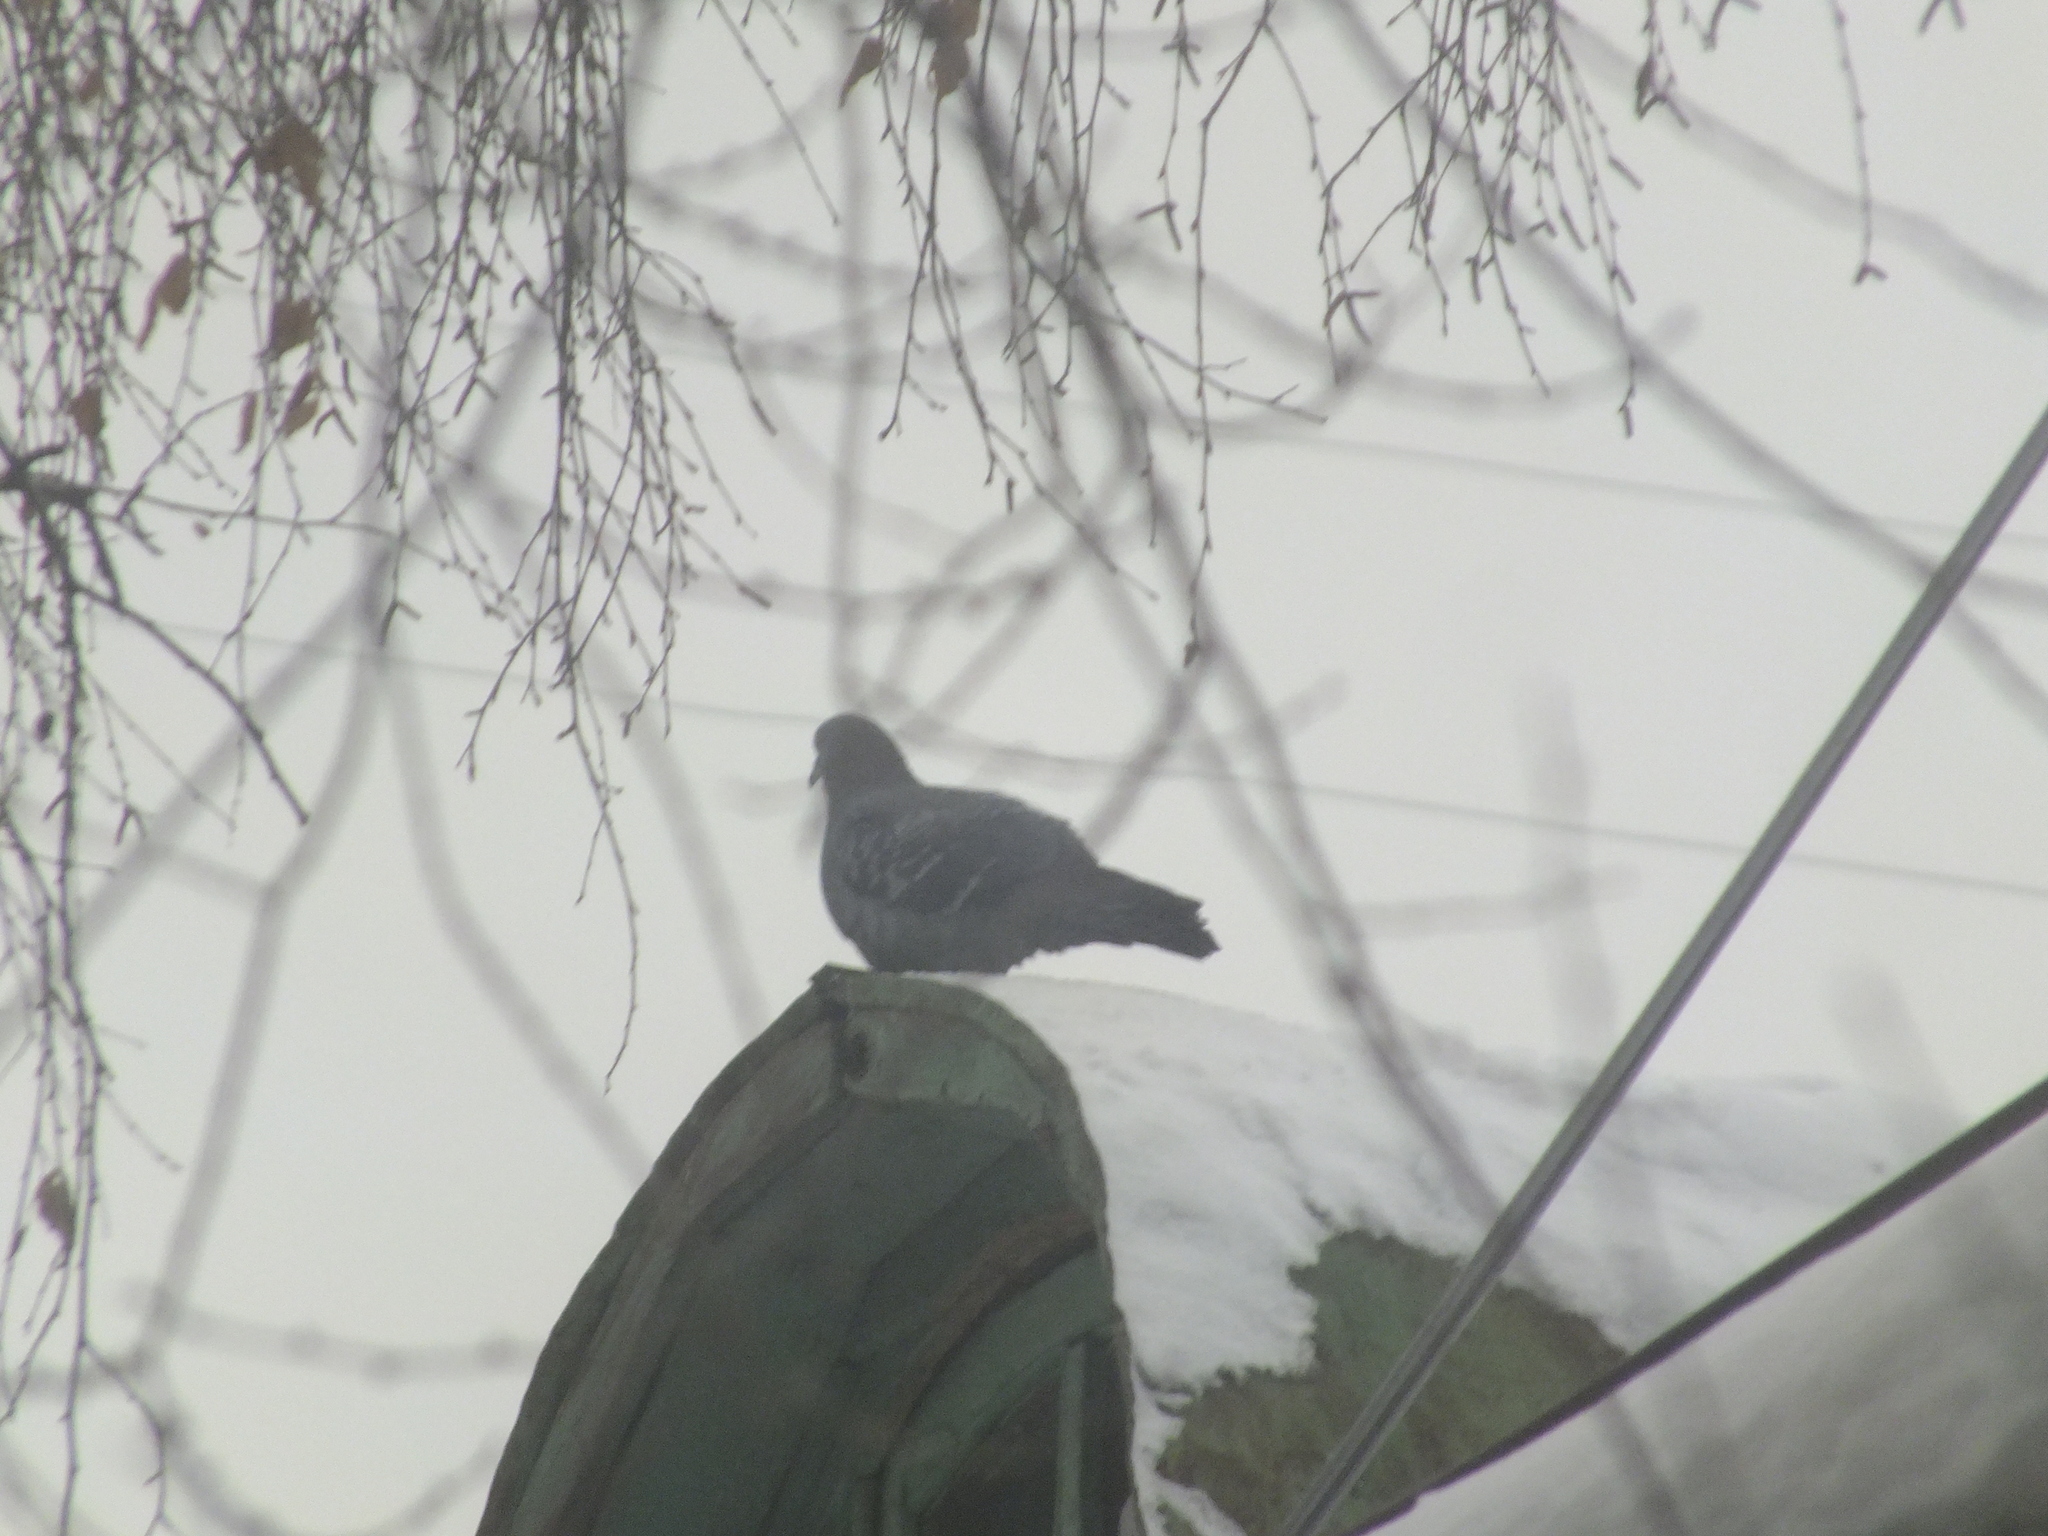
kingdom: Animalia
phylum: Chordata
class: Aves
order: Columbiformes
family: Columbidae
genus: Columba
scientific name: Columba livia
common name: Rock pigeon
